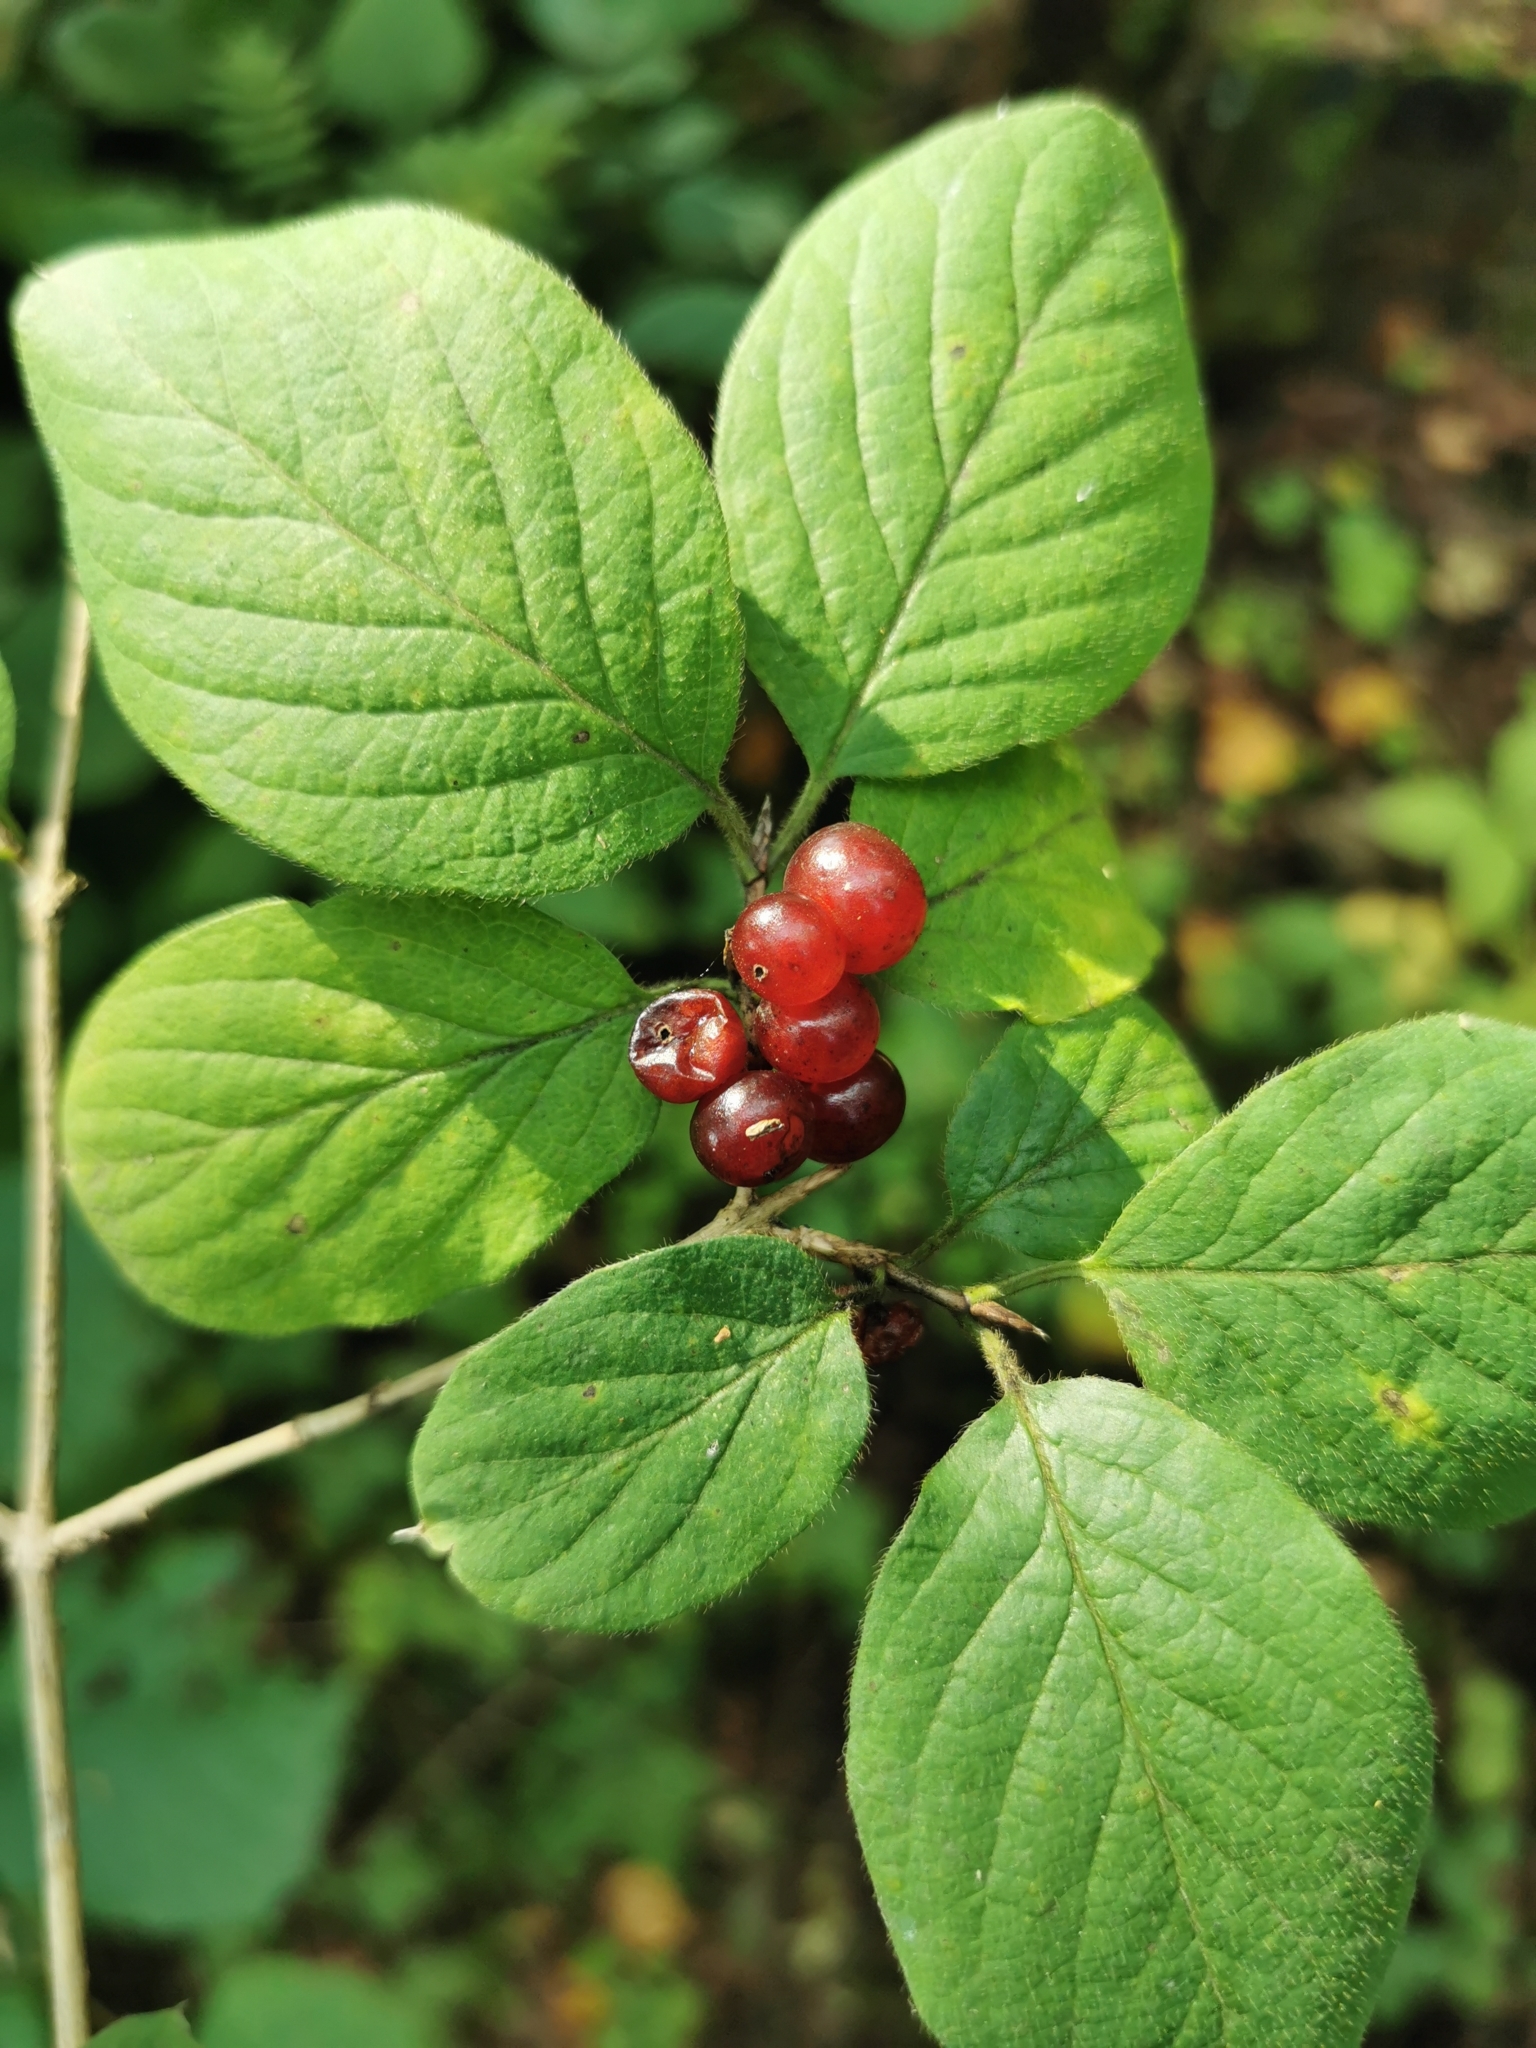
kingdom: Plantae
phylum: Tracheophyta
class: Magnoliopsida
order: Dipsacales
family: Caprifoliaceae
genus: Lonicera
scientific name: Lonicera xylosteum
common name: Fly honeysuckle
